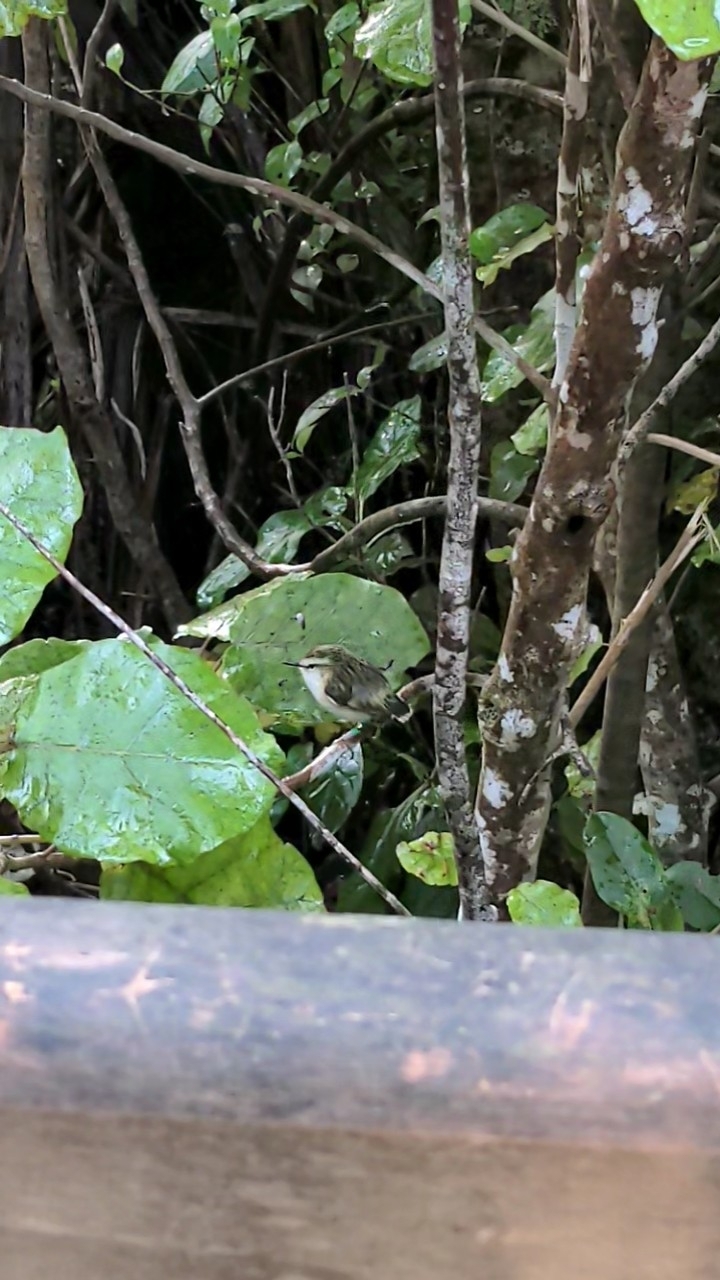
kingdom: Animalia
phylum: Chordata
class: Aves
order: Passeriformes
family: Acanthisittidae
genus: Acanthisitta
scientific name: Acanthisitta chloris
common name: Rifleman
